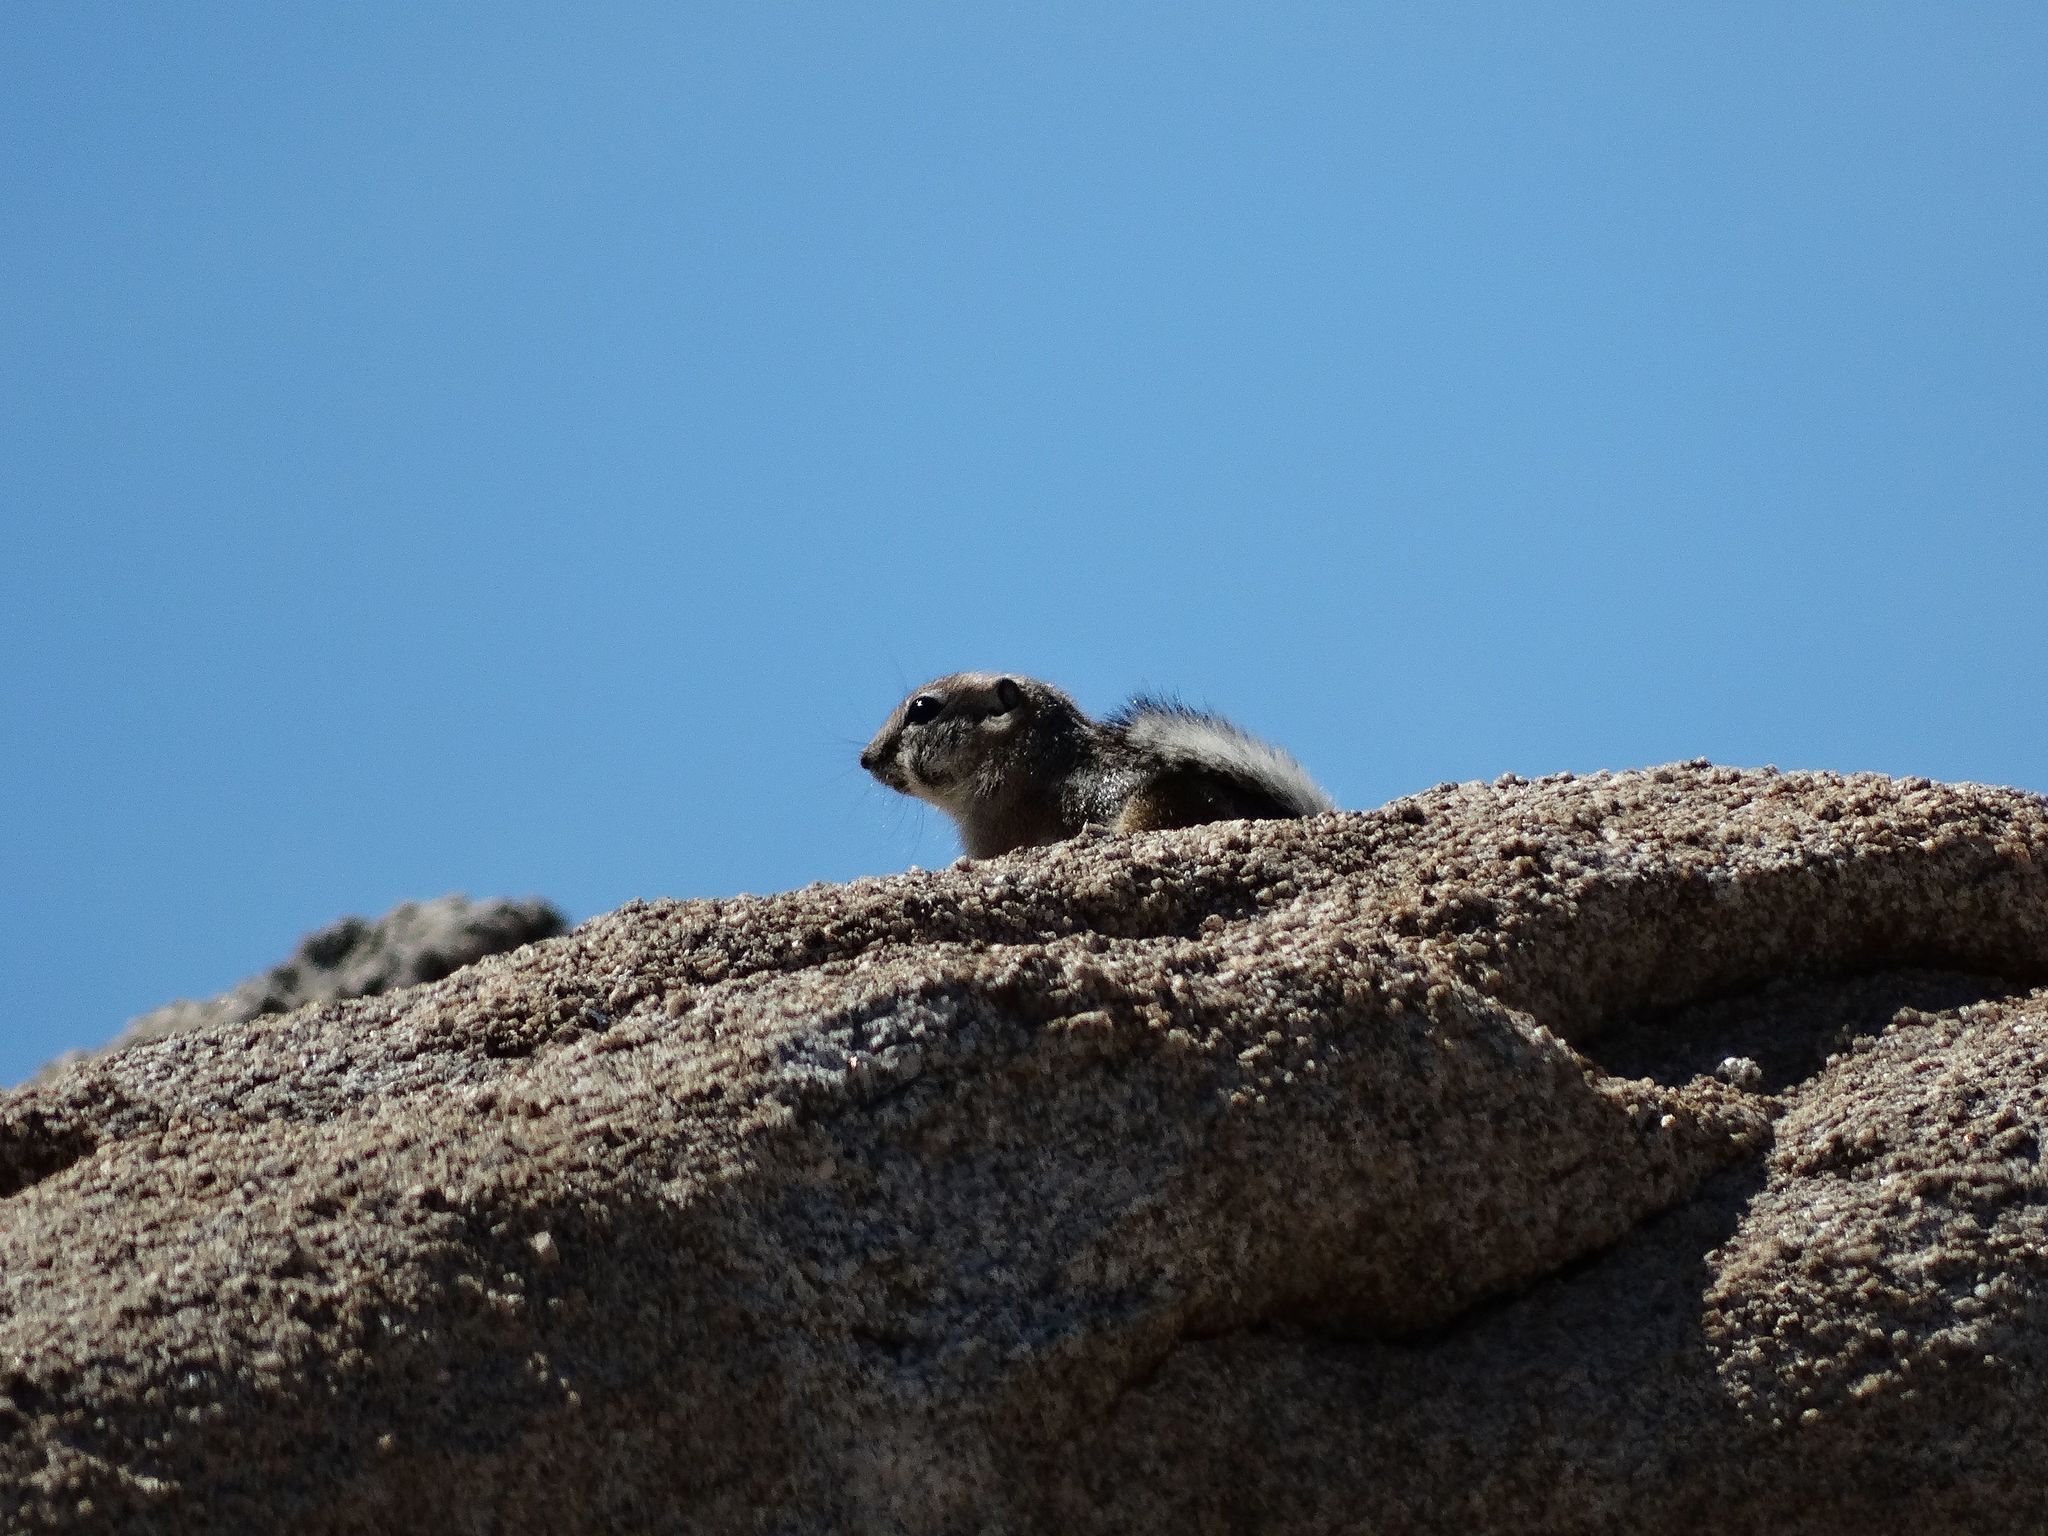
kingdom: Animalia
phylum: Chordata
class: Mammalia
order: Rodentia
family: Sciuridae
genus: Ammospermophilus
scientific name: Ammospermophilus leucurus
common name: White-tailed antelope squirrel
